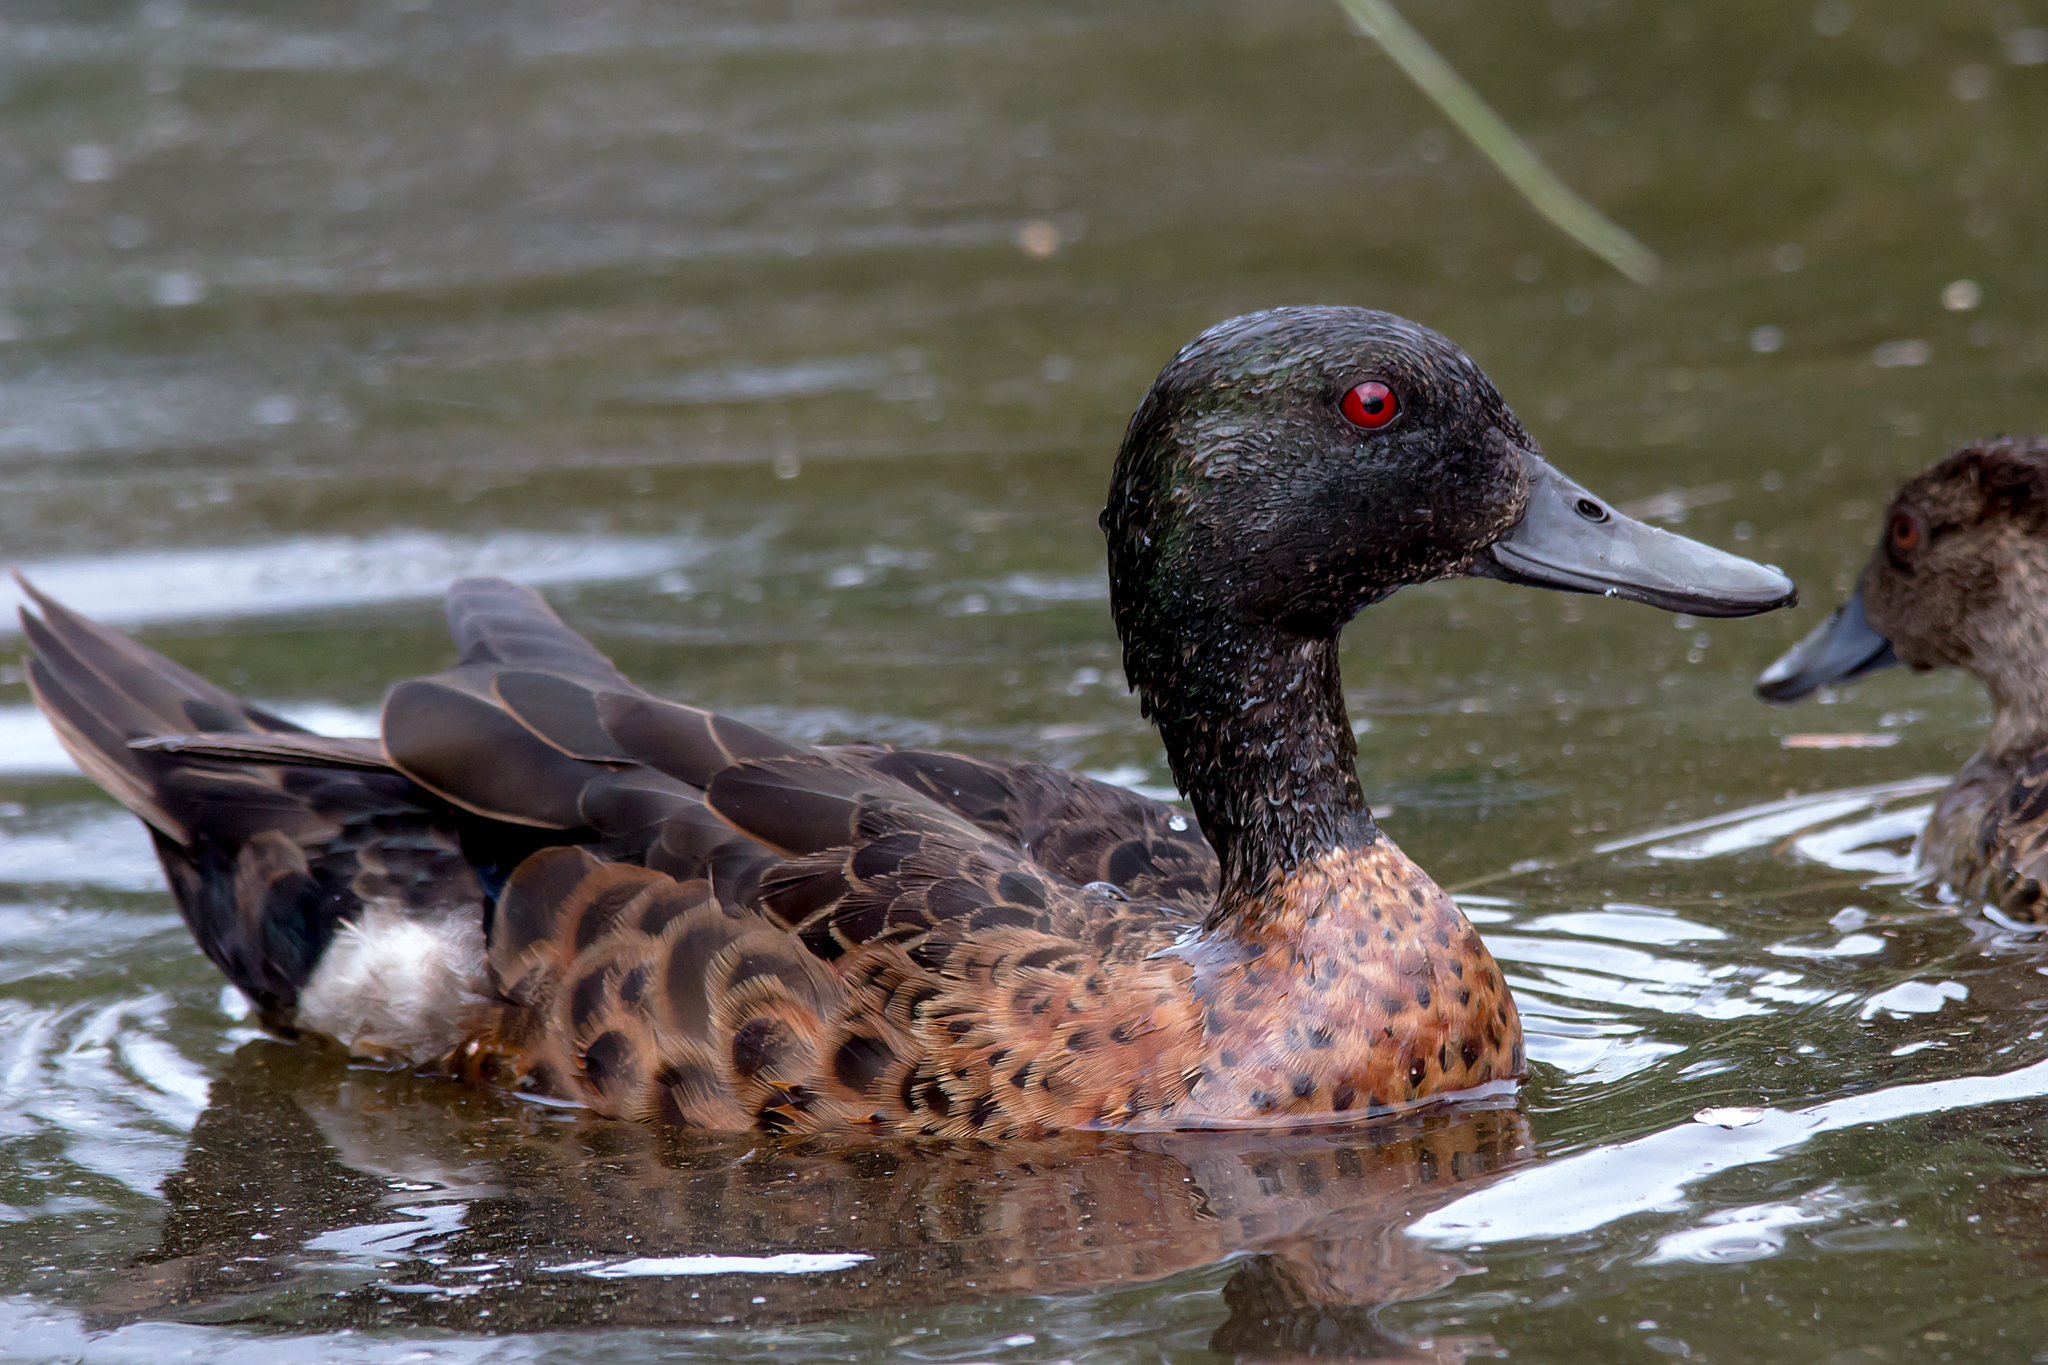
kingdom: Animalia
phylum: Chordata
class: Aves
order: Anseriformes
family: Anatidae
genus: Anas
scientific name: Anas castanea
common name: Chestnut teal
